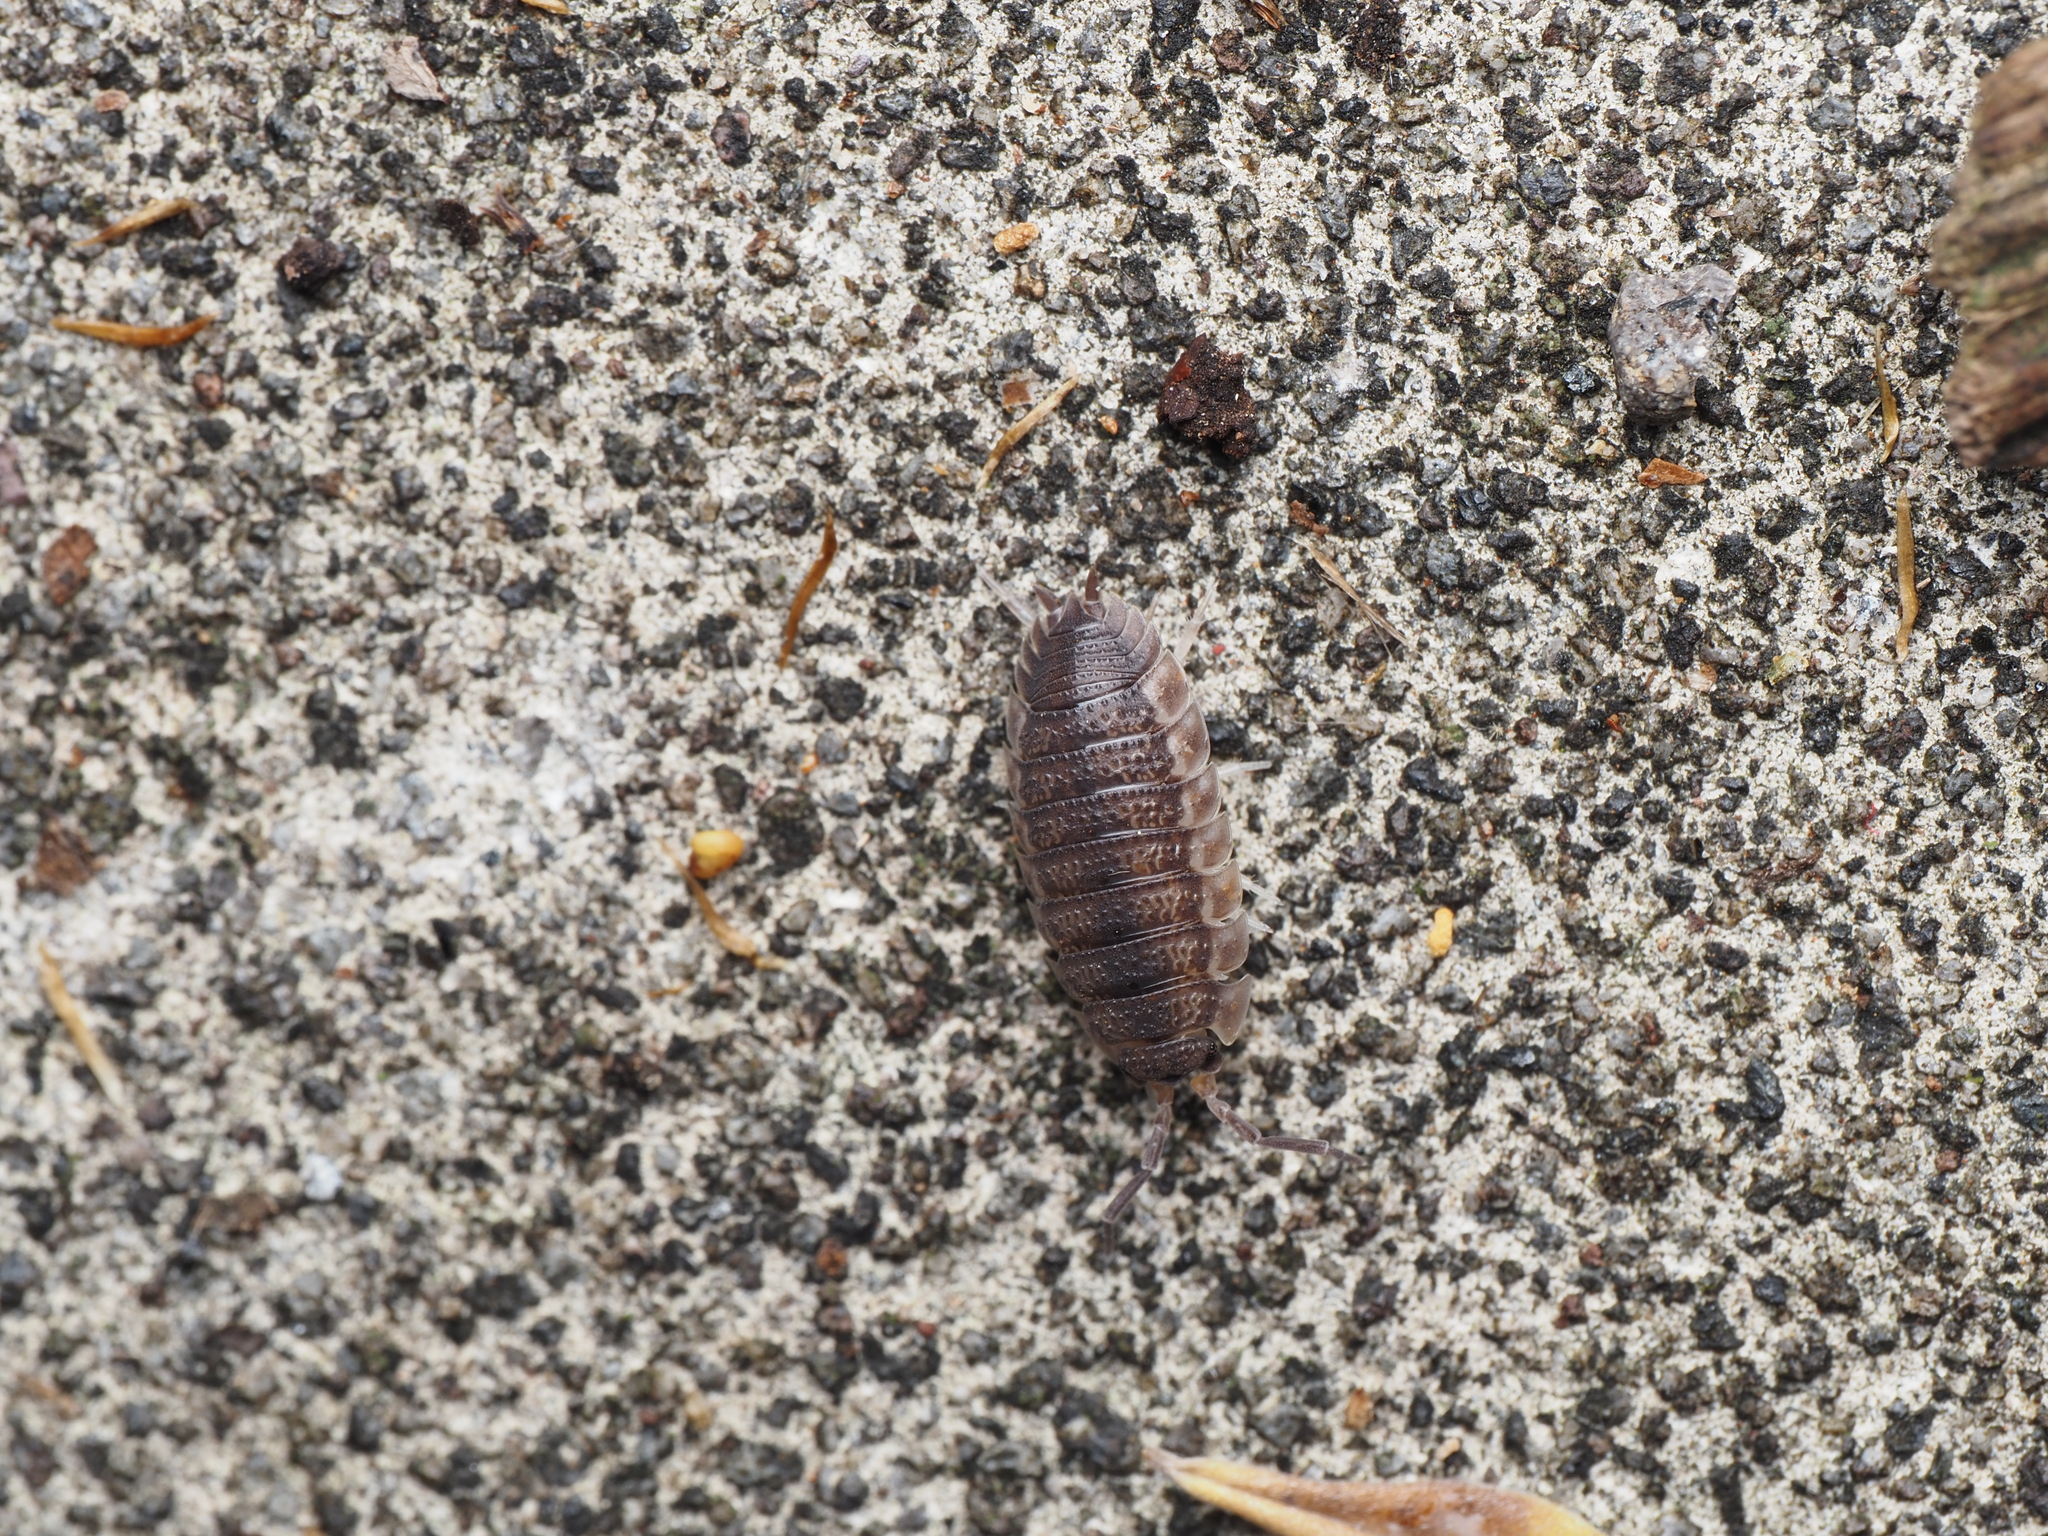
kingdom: Animalia
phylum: Arthropoda
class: Malacostraca
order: Isopoda
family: Porcellionidae
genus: Porcellio
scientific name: Porcellio scaber
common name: Common rough woodlouse
